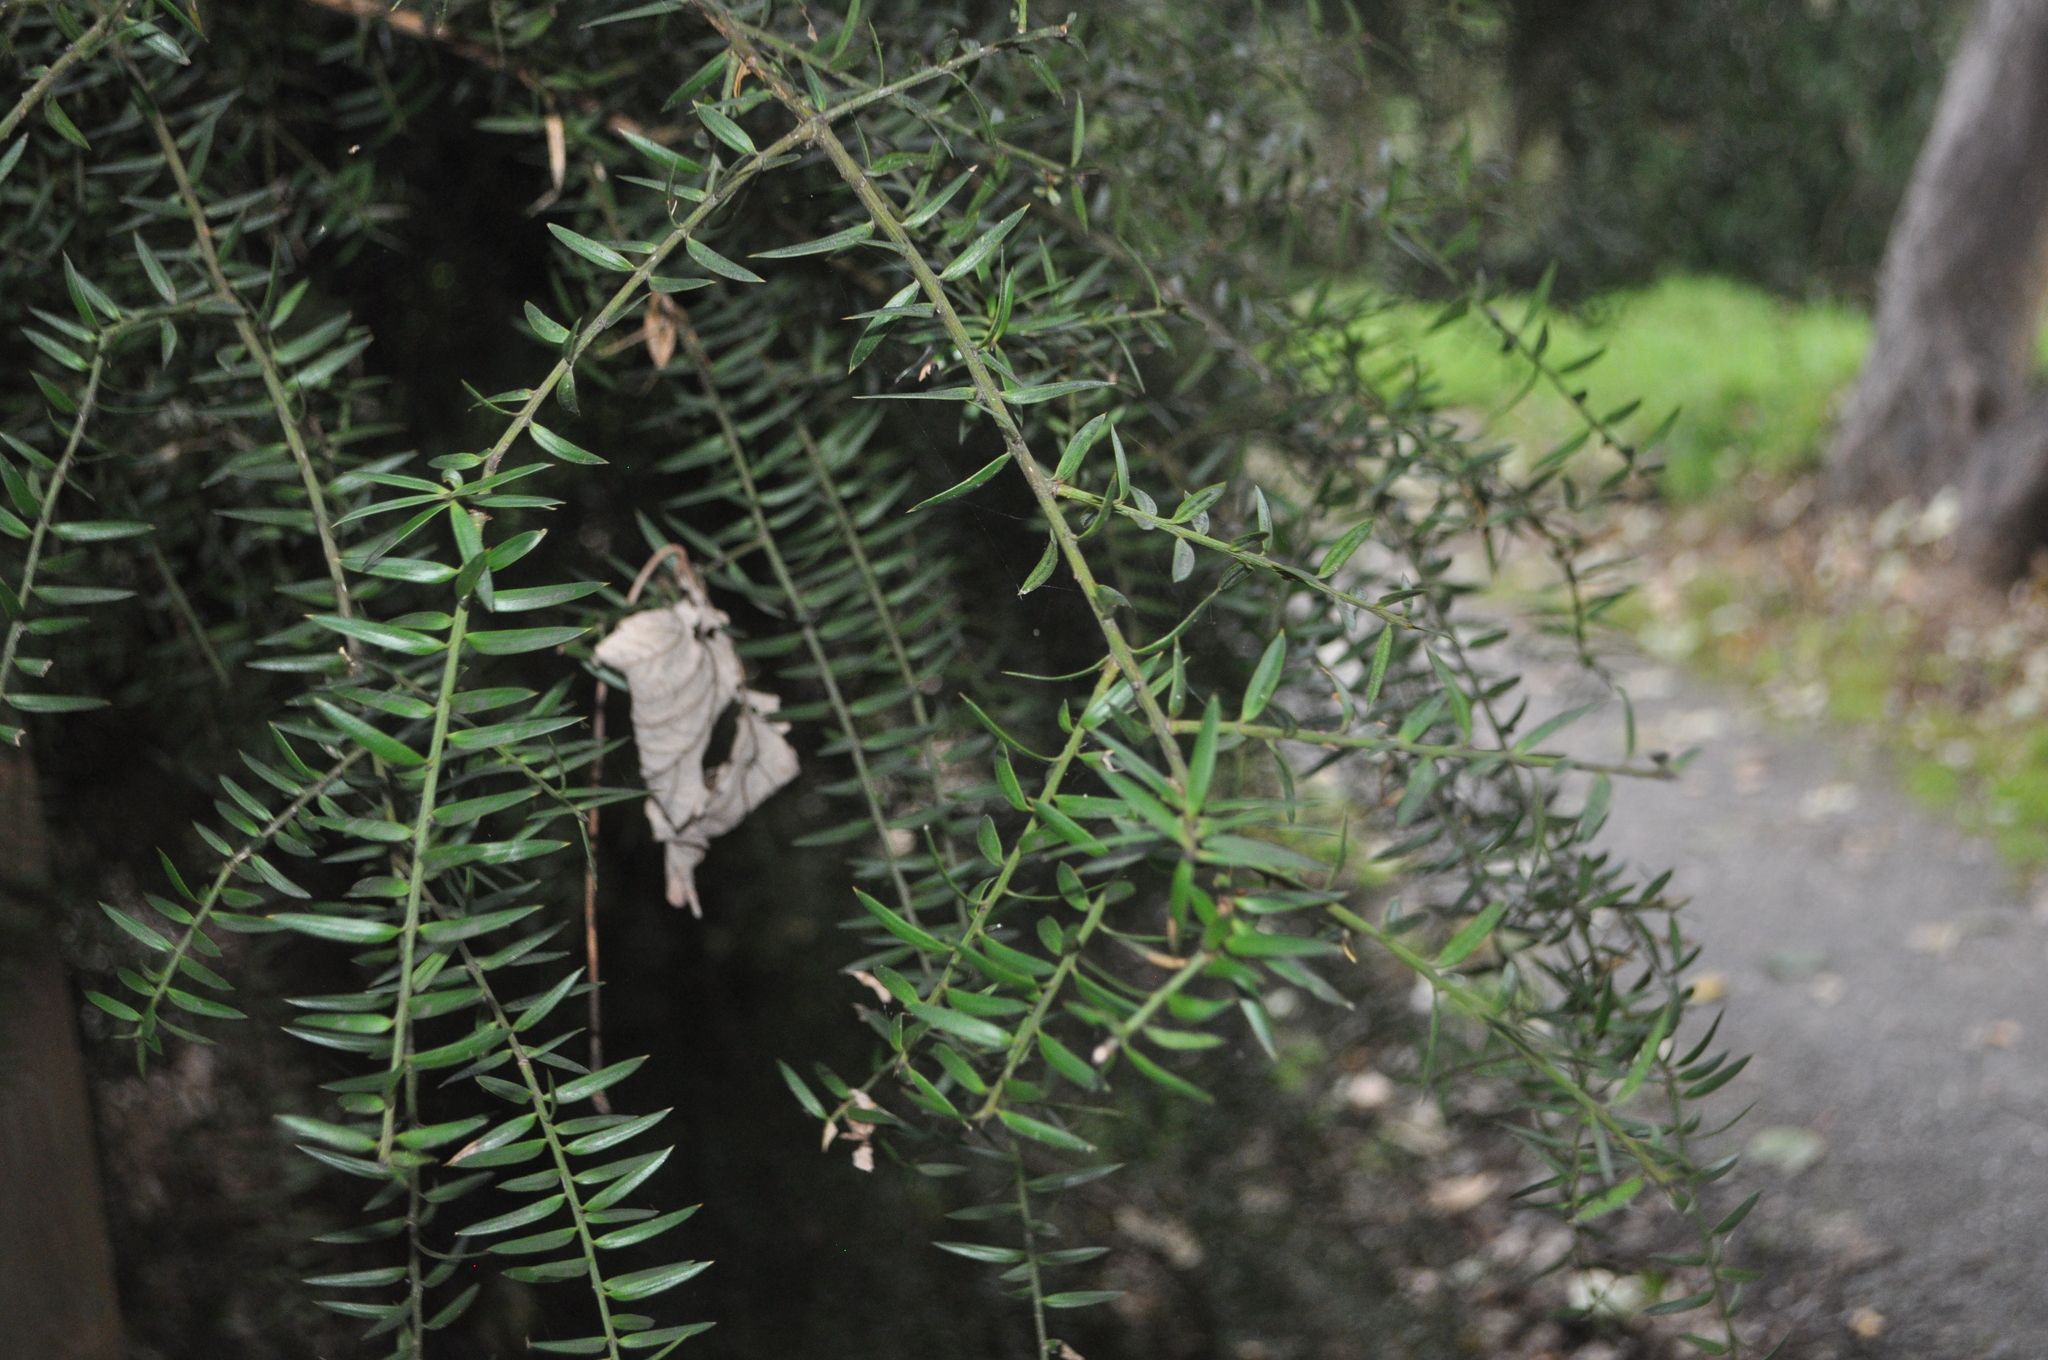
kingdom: Plantae
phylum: Tracheophyta
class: Pinopsida
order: Pinales
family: Podocarpaceae
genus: Podocarpus
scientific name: Podocarpus totara
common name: Totara
